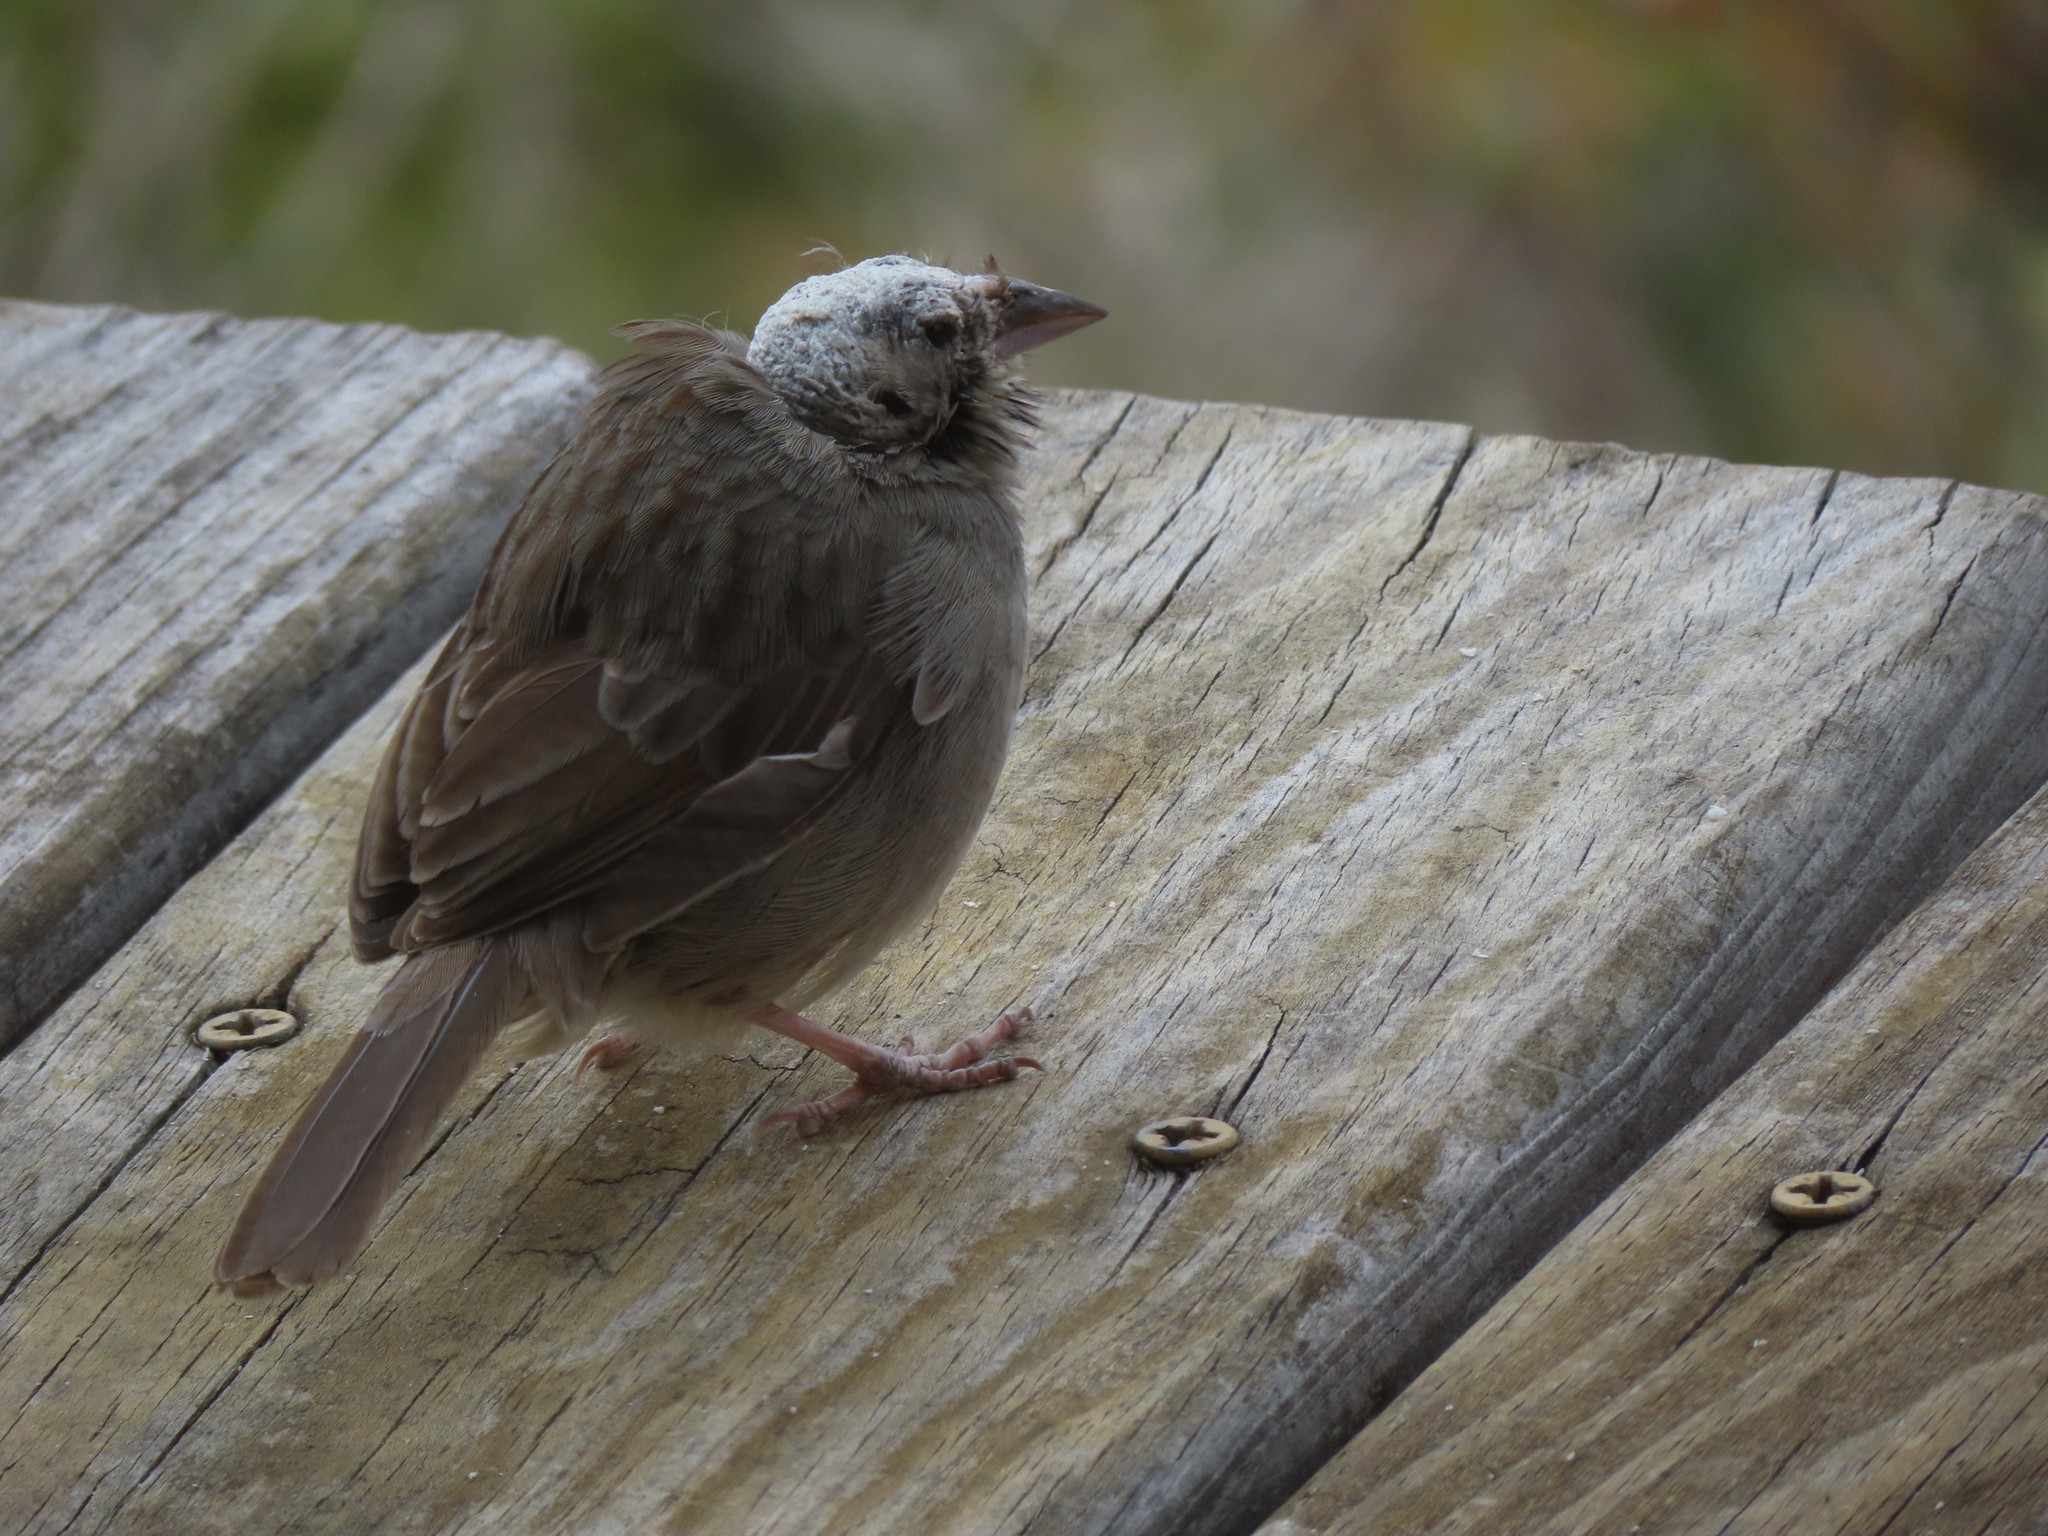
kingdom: Animalia
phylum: Chordata
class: Aves
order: Passeriformes
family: Passerellidae
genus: Aimophila
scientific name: Aimophila ruficeps
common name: Rufous-crowned sparrow
